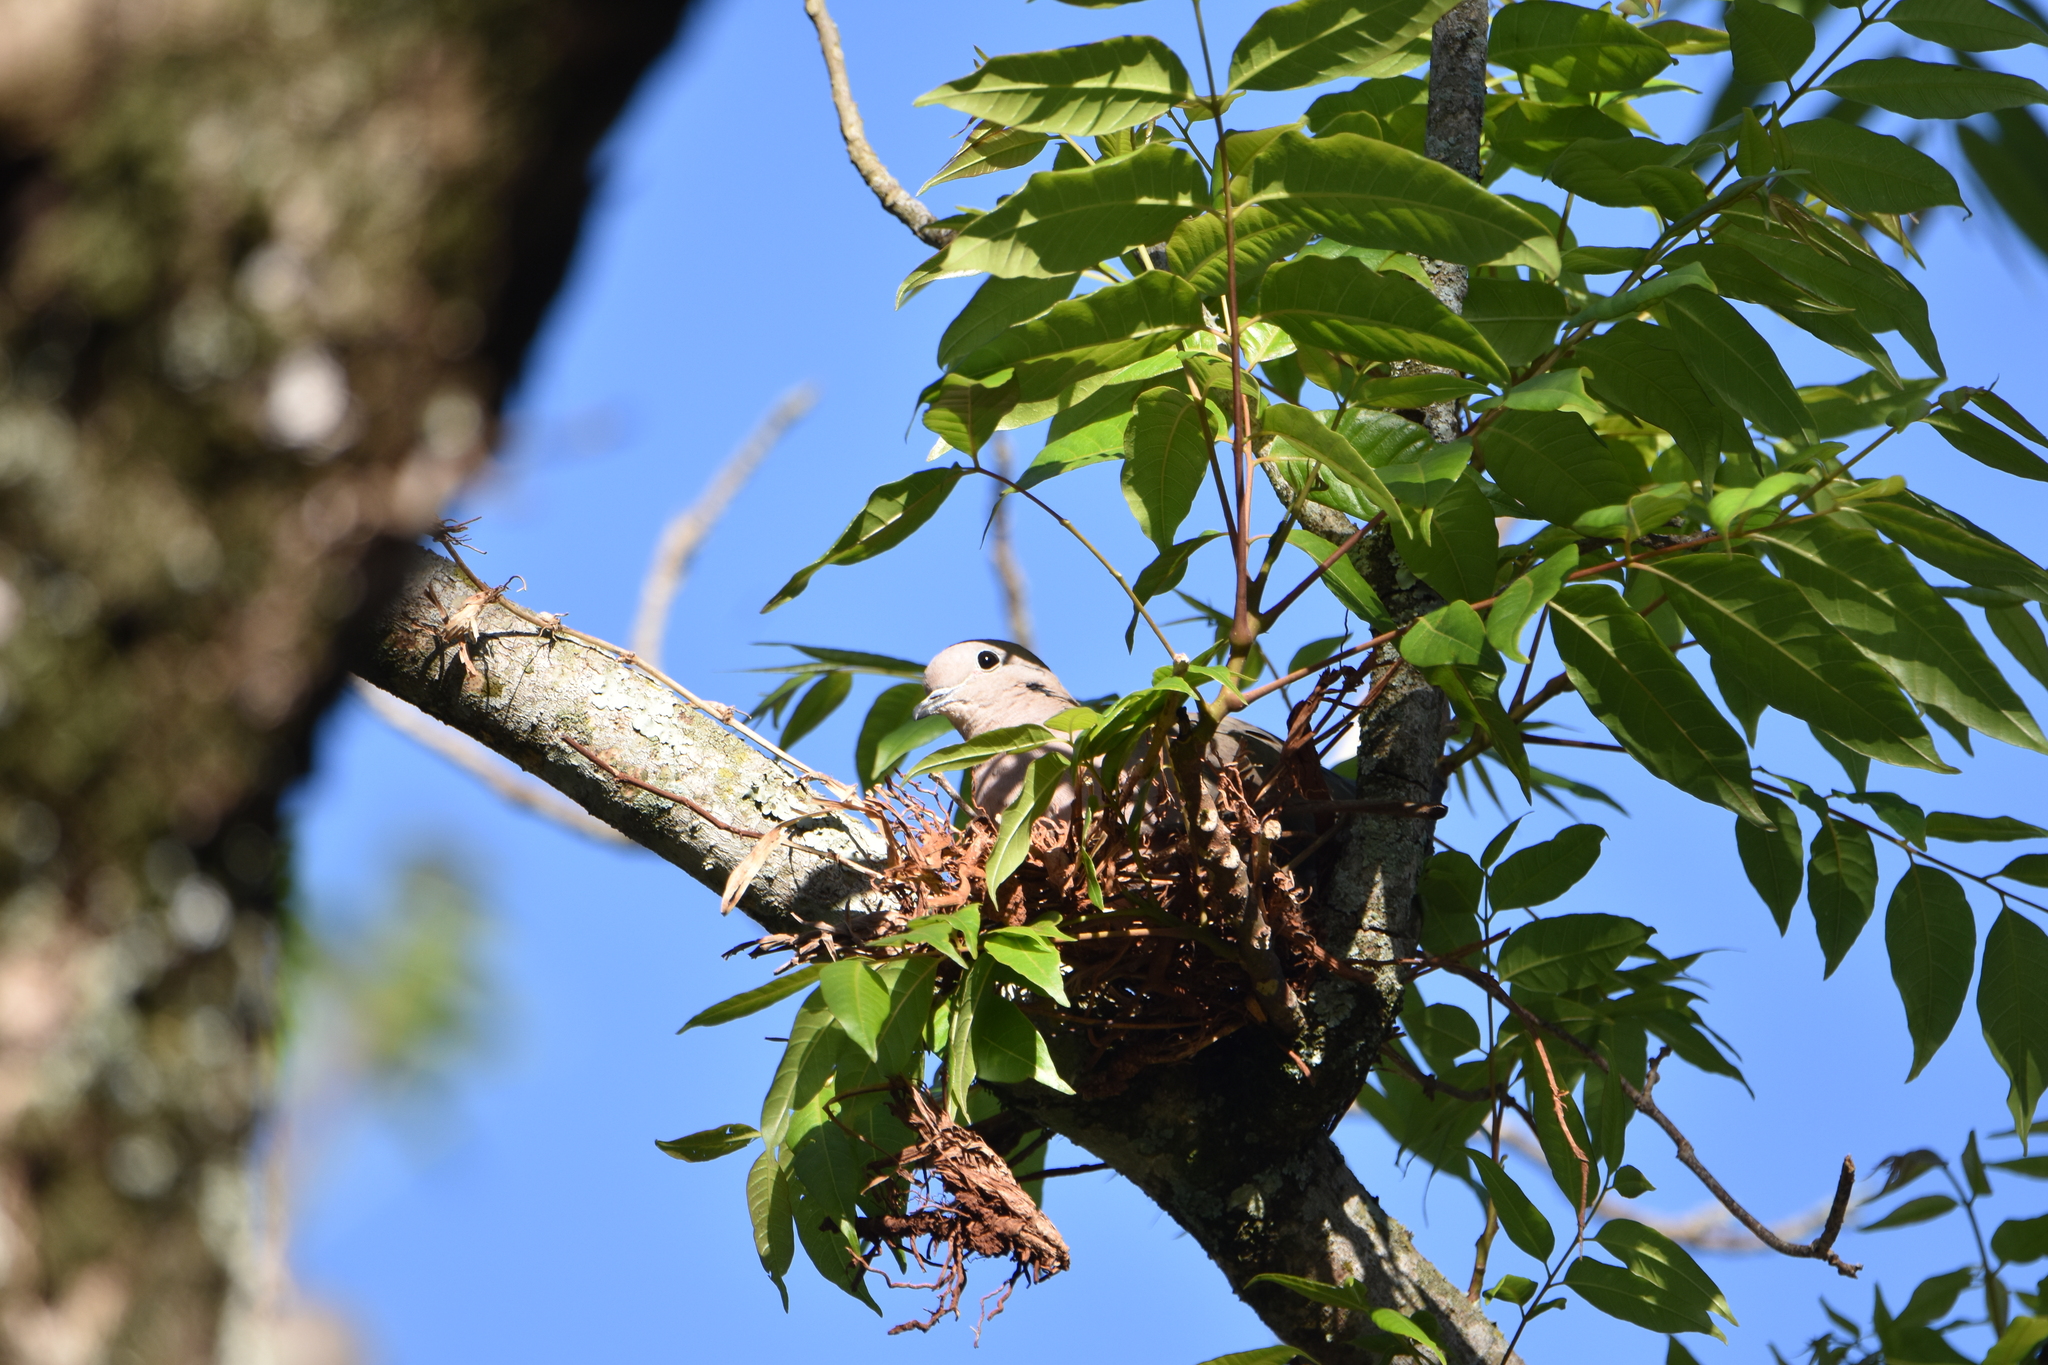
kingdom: Animalia
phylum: Chordata
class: Aves
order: Columbiformes
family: Columbidae
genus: Zenaida
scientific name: Zenaida auriculata
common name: Eared dove
